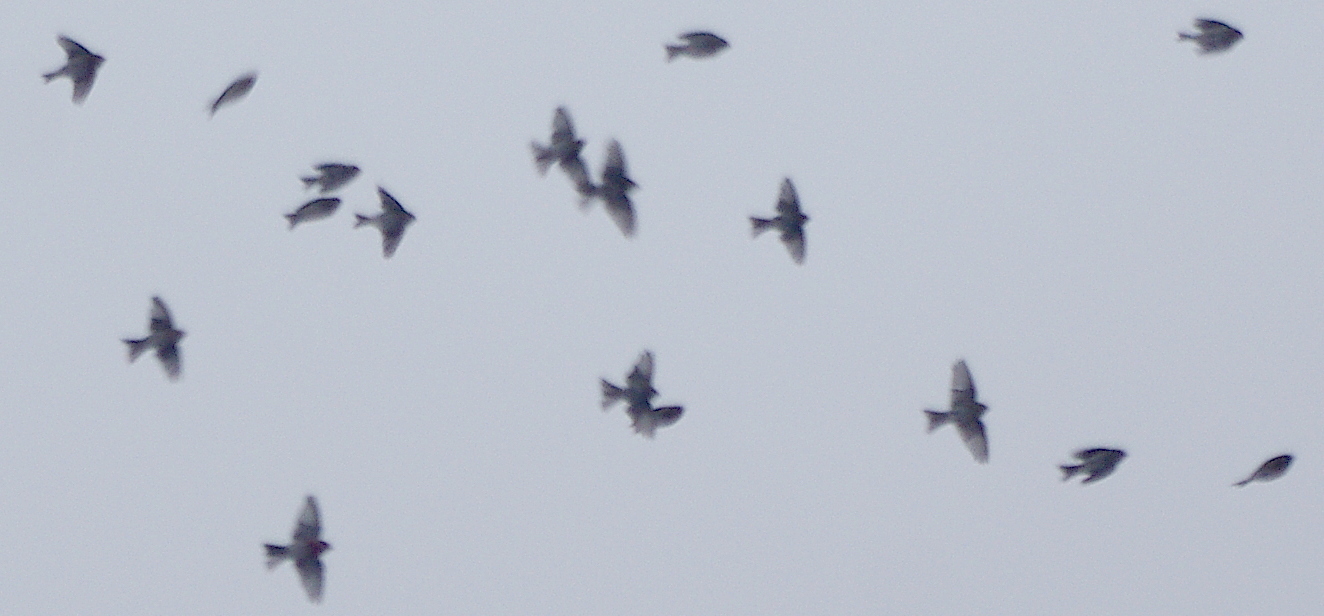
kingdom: Animalia
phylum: Chordata
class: Aves
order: Passeriformes
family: Fringillidae
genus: Acanthis
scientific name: Acanthis flammea
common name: Common redpoll
